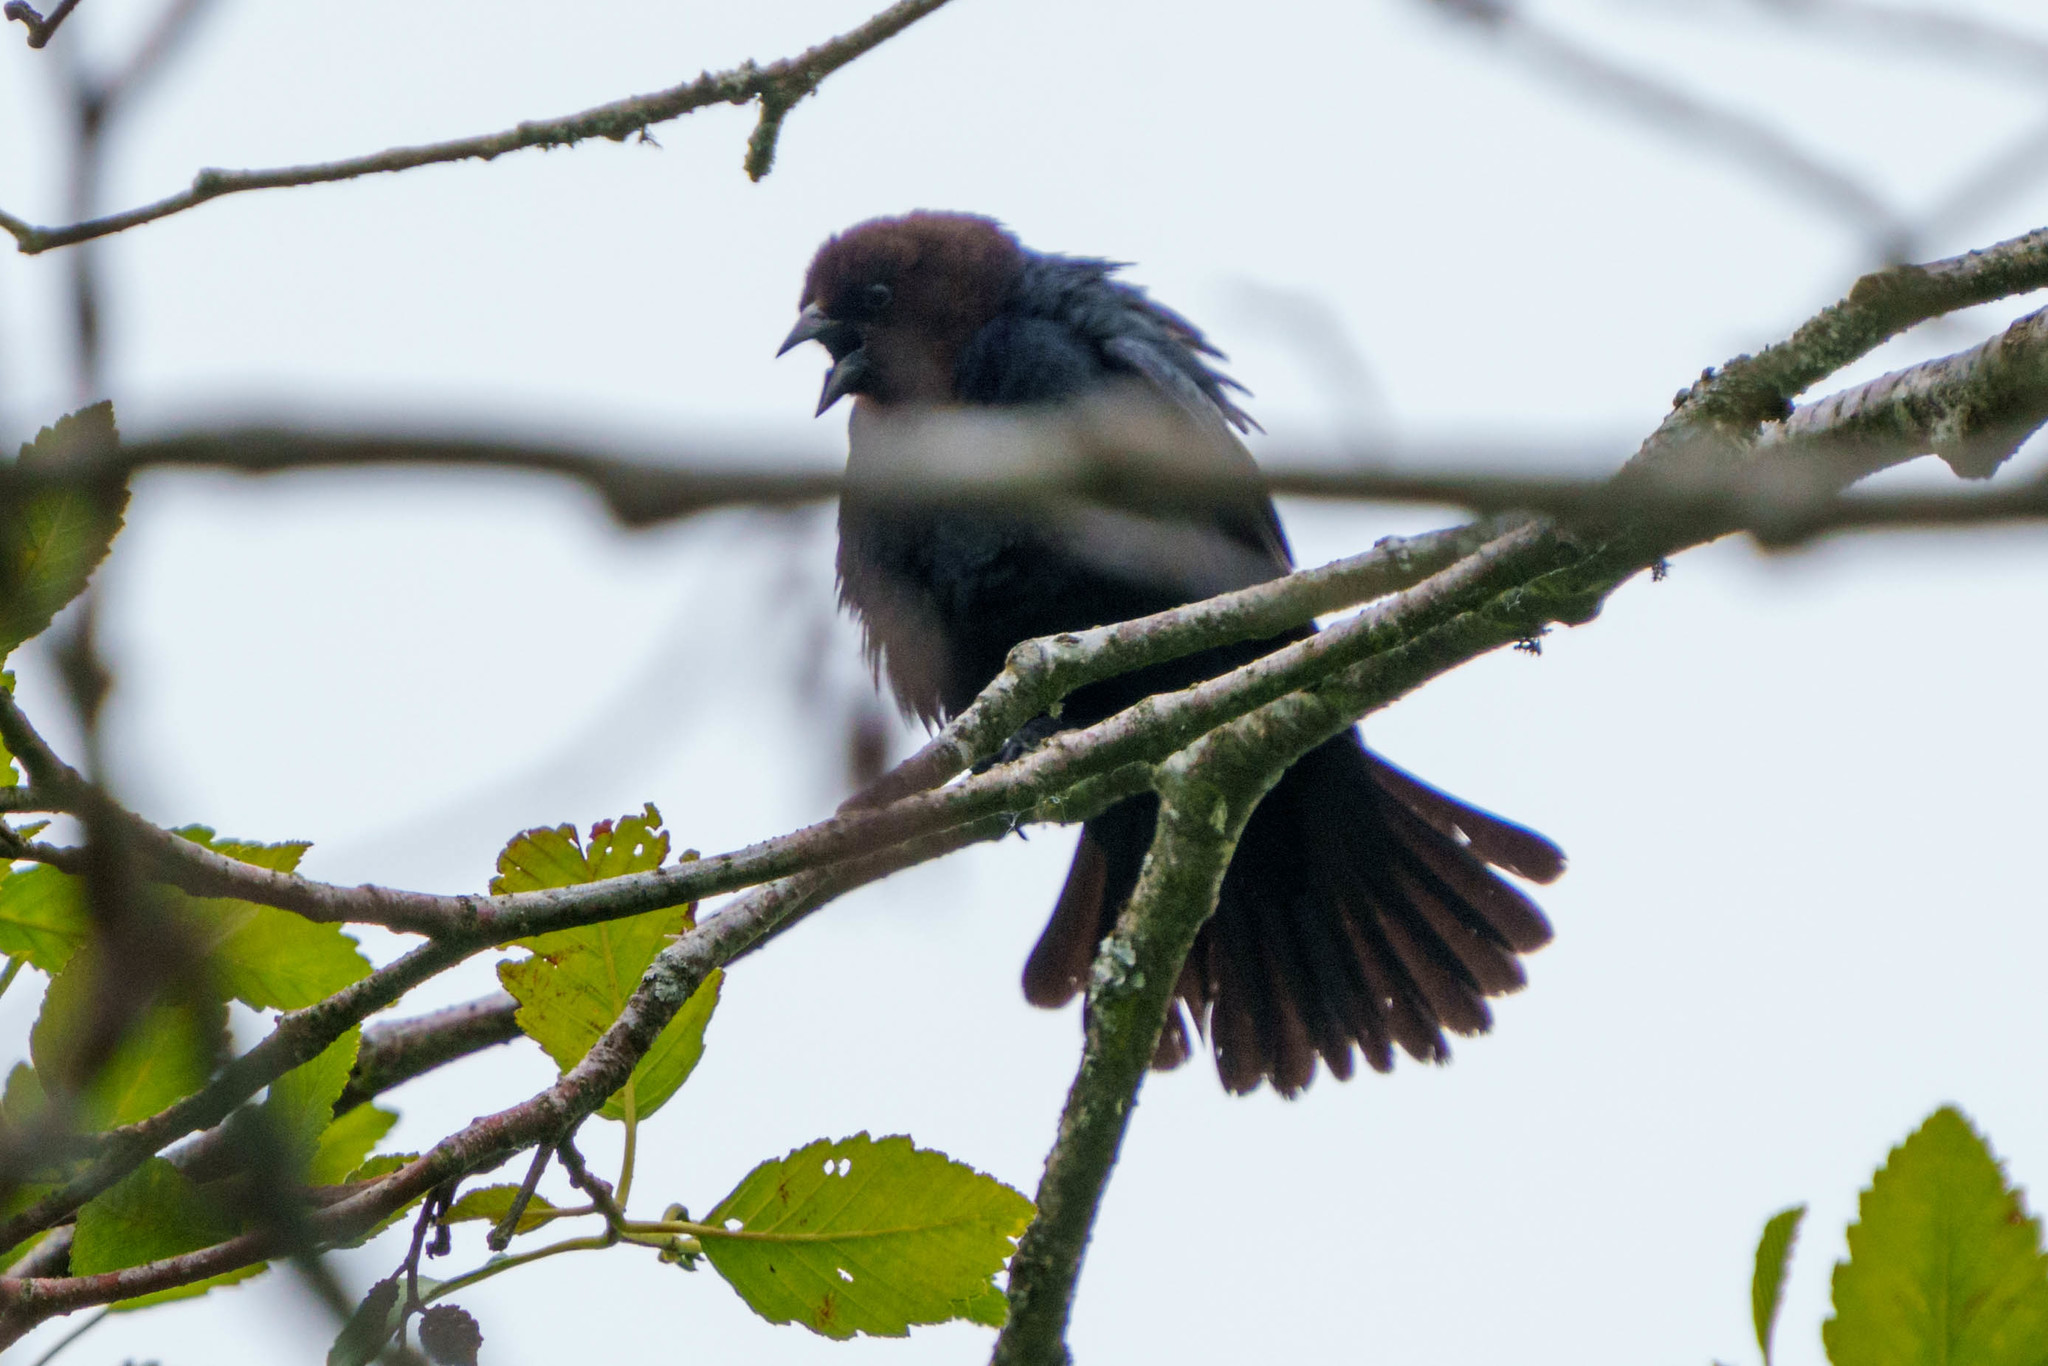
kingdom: Animalia
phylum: Chordata
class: Aves
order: Passeriformes
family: Icteridae
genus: Molothrus
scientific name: Molothrus ater
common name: Brown-headed cowbird
